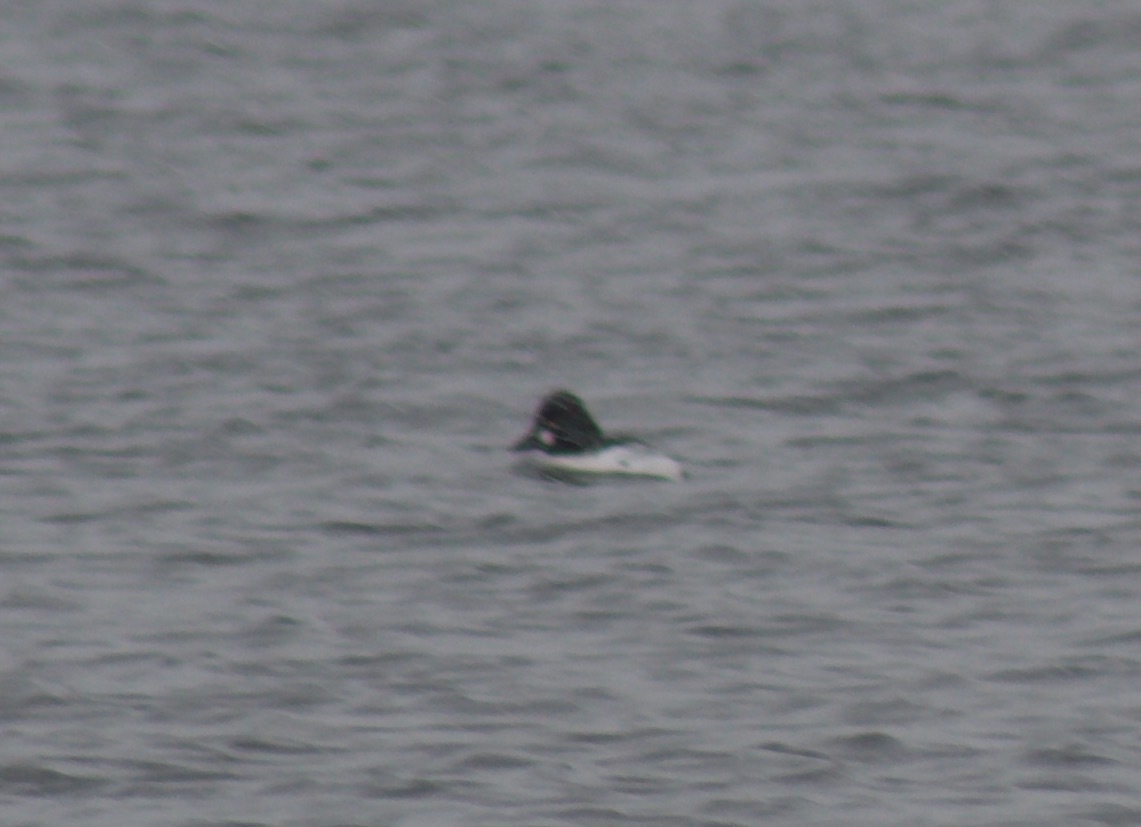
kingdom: Animalia
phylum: Chordata
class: Aves
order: Anseriformes
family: Anatidae
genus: Bucephala
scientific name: Bucephala clangula
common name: Common goldeneye
